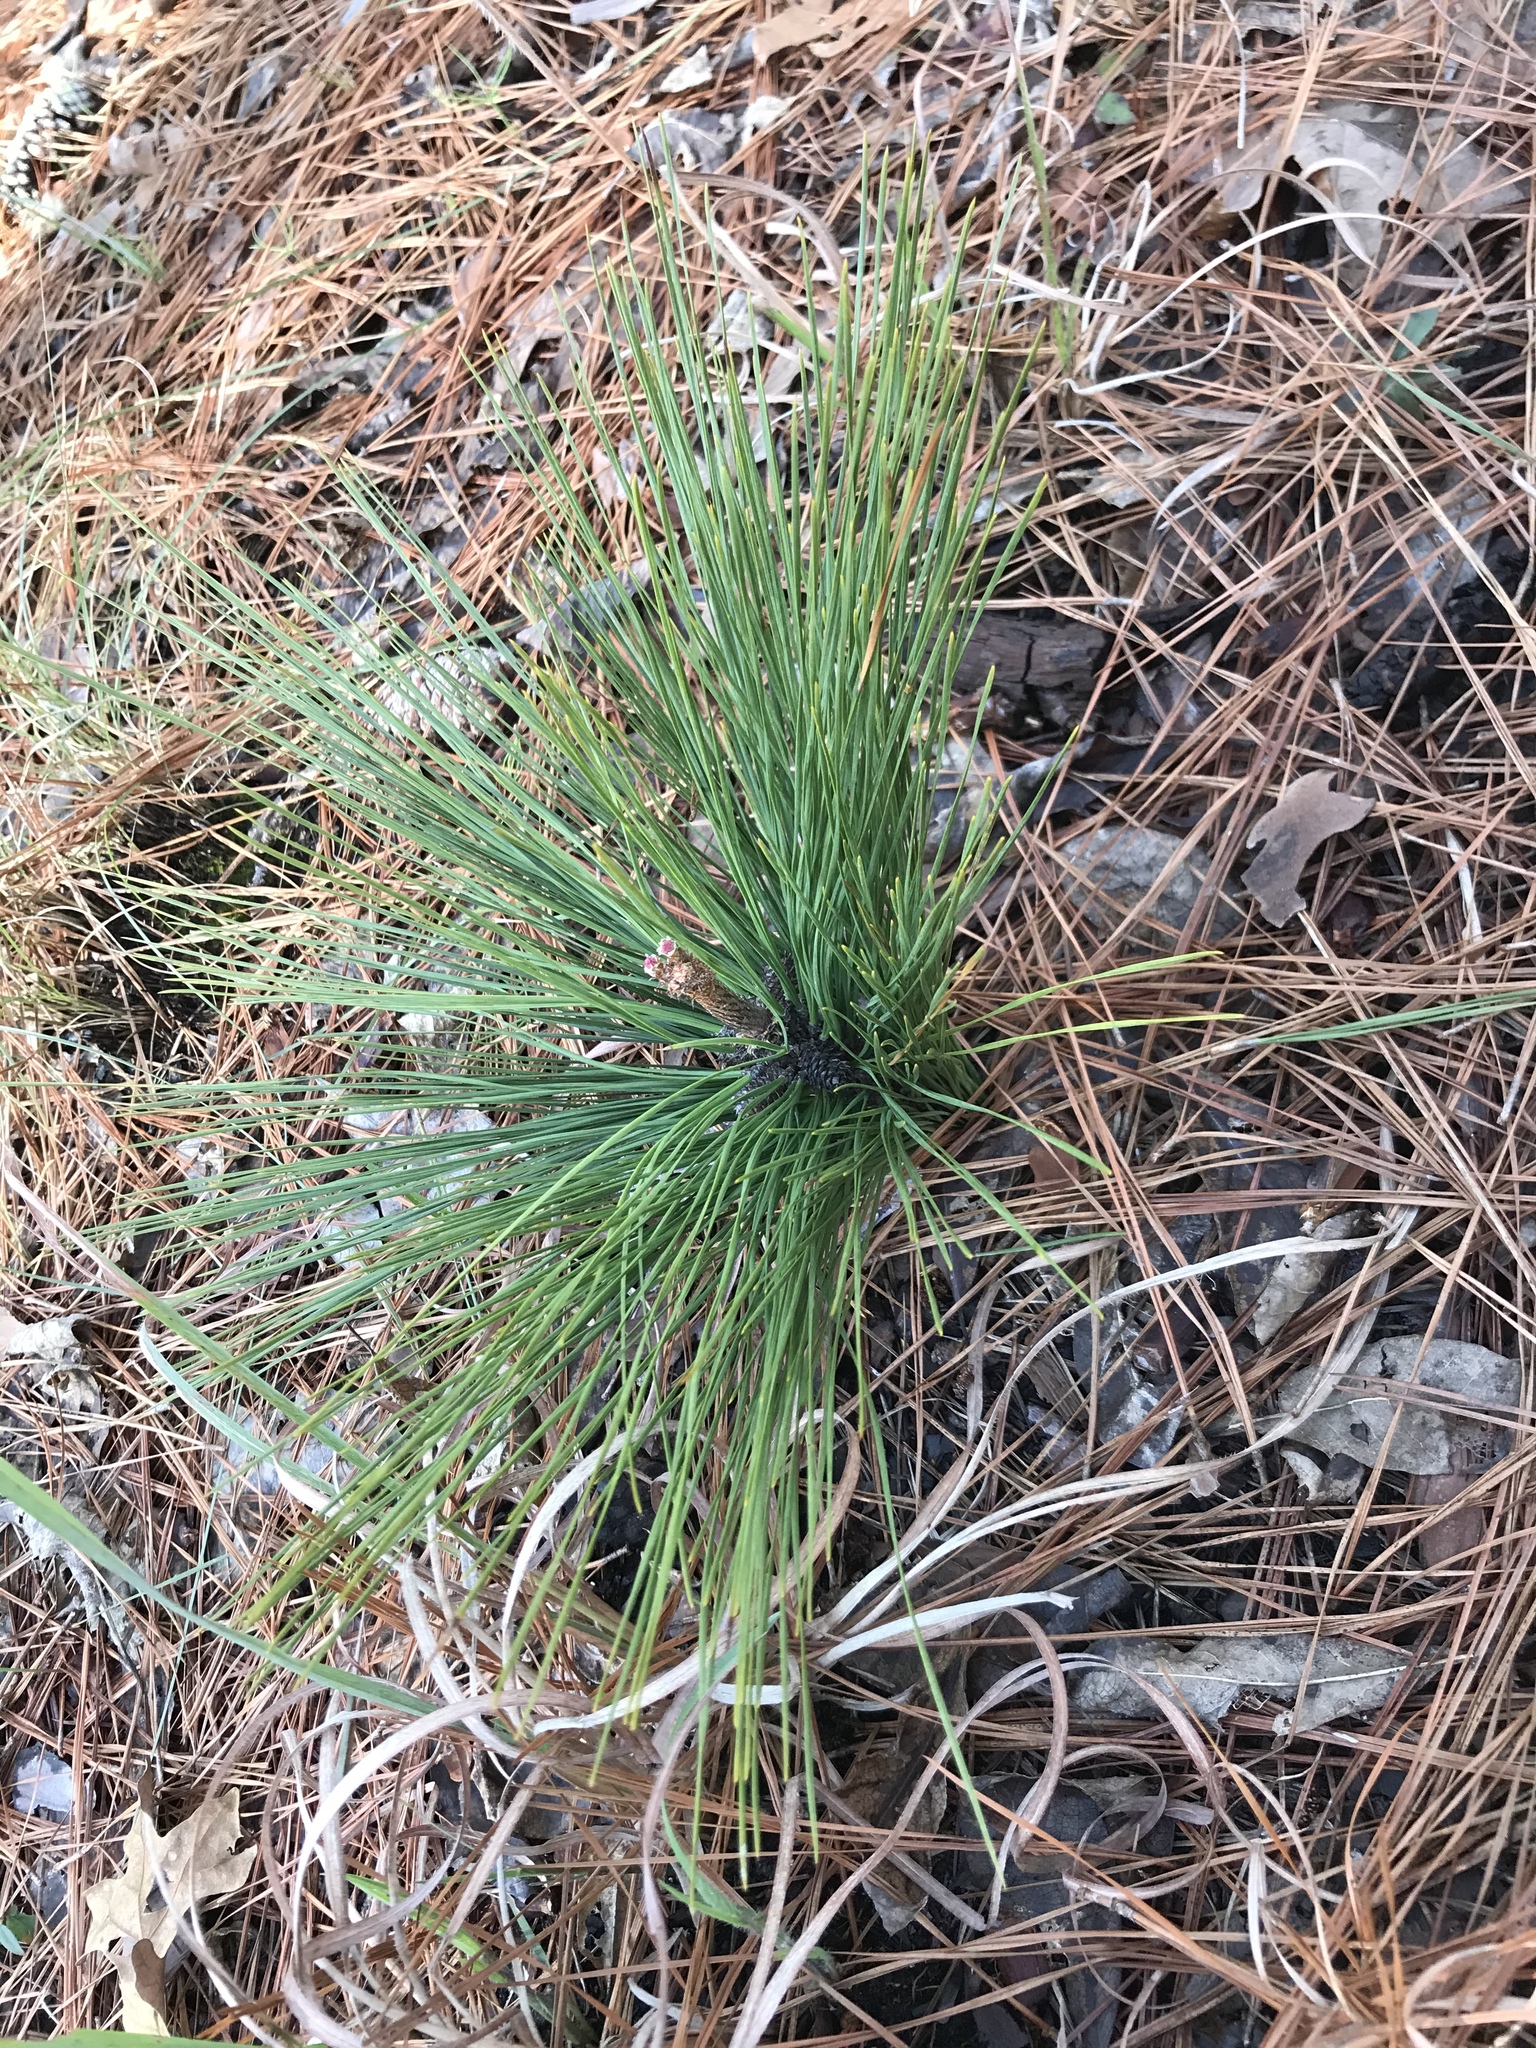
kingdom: Plantae
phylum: Tracheophyta
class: Pinopsida
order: Pinales
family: Pinaceae
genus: Pinus
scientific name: Pinus palustris
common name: Longleaf pine
